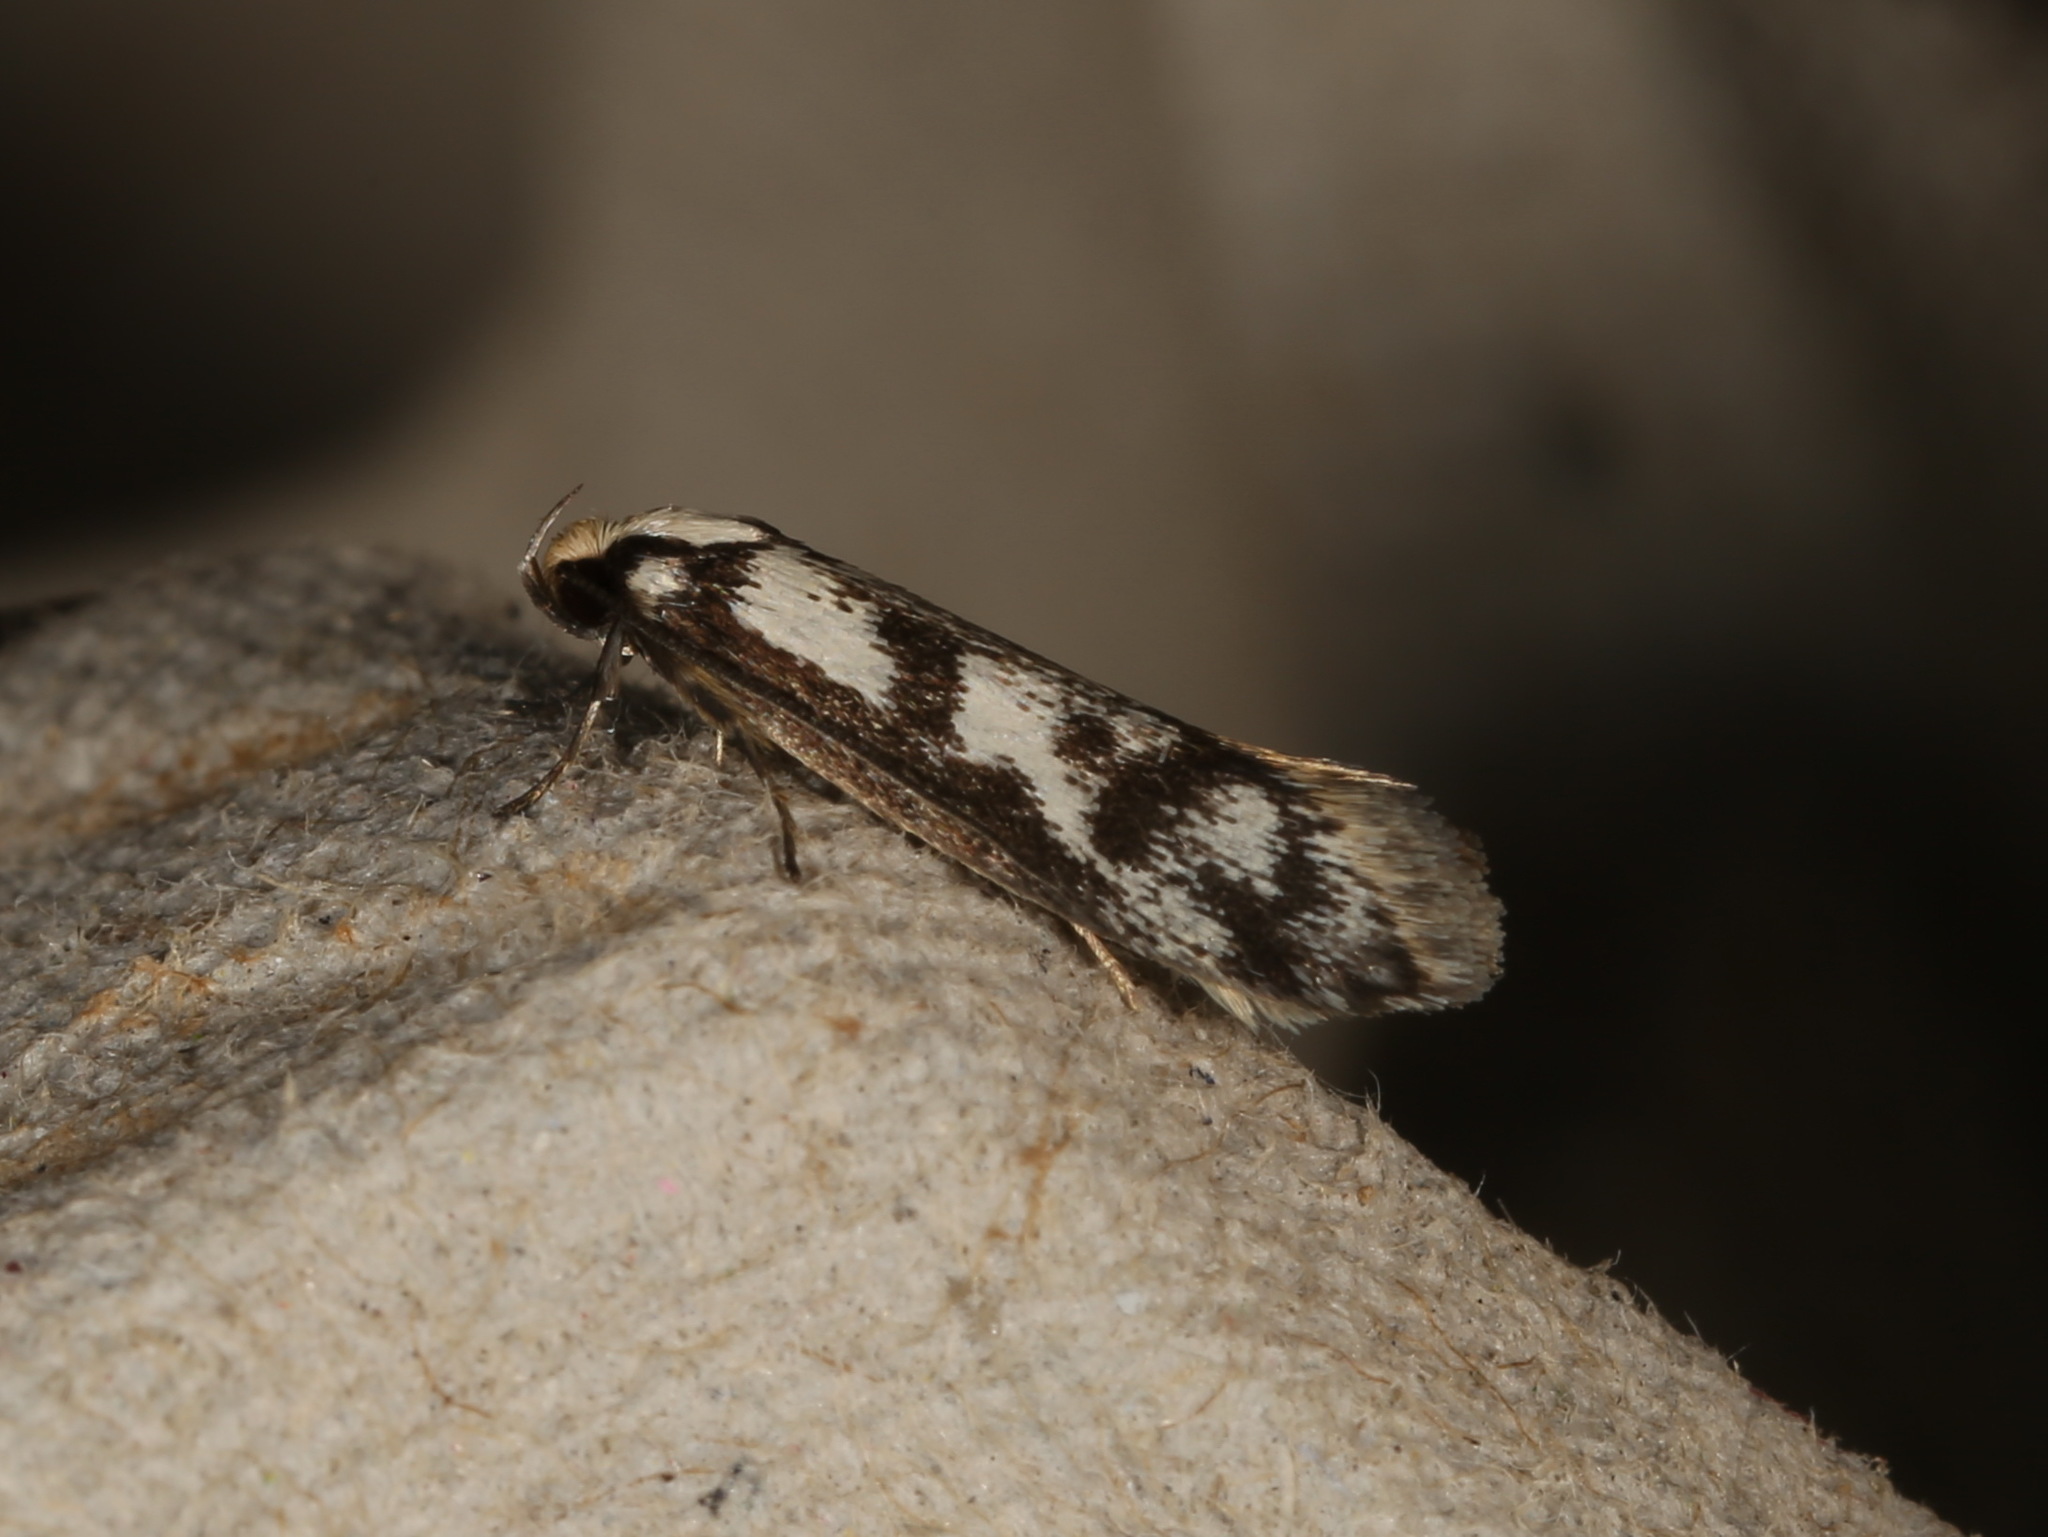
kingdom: Animalia
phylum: Arthropoda
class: Insecta
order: Lepidoptera
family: Oecophoridae
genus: Eusemocosma
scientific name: Eusemocosma pruinosa
